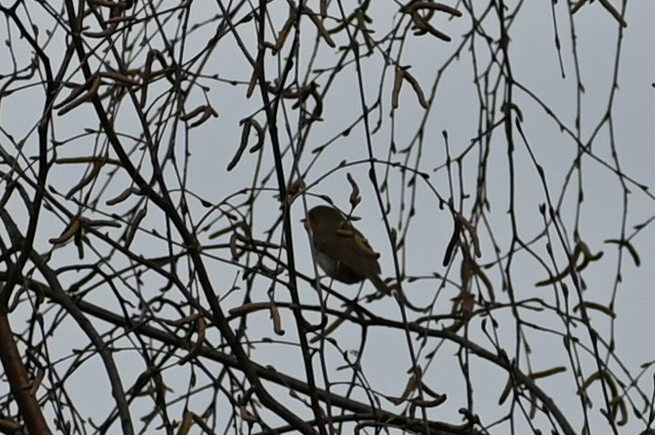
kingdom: Animalia
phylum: Chordata
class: Aves
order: Passeriformes
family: Muscicapidae
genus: Erithacus
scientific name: Erithacus rubecula
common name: European robin
